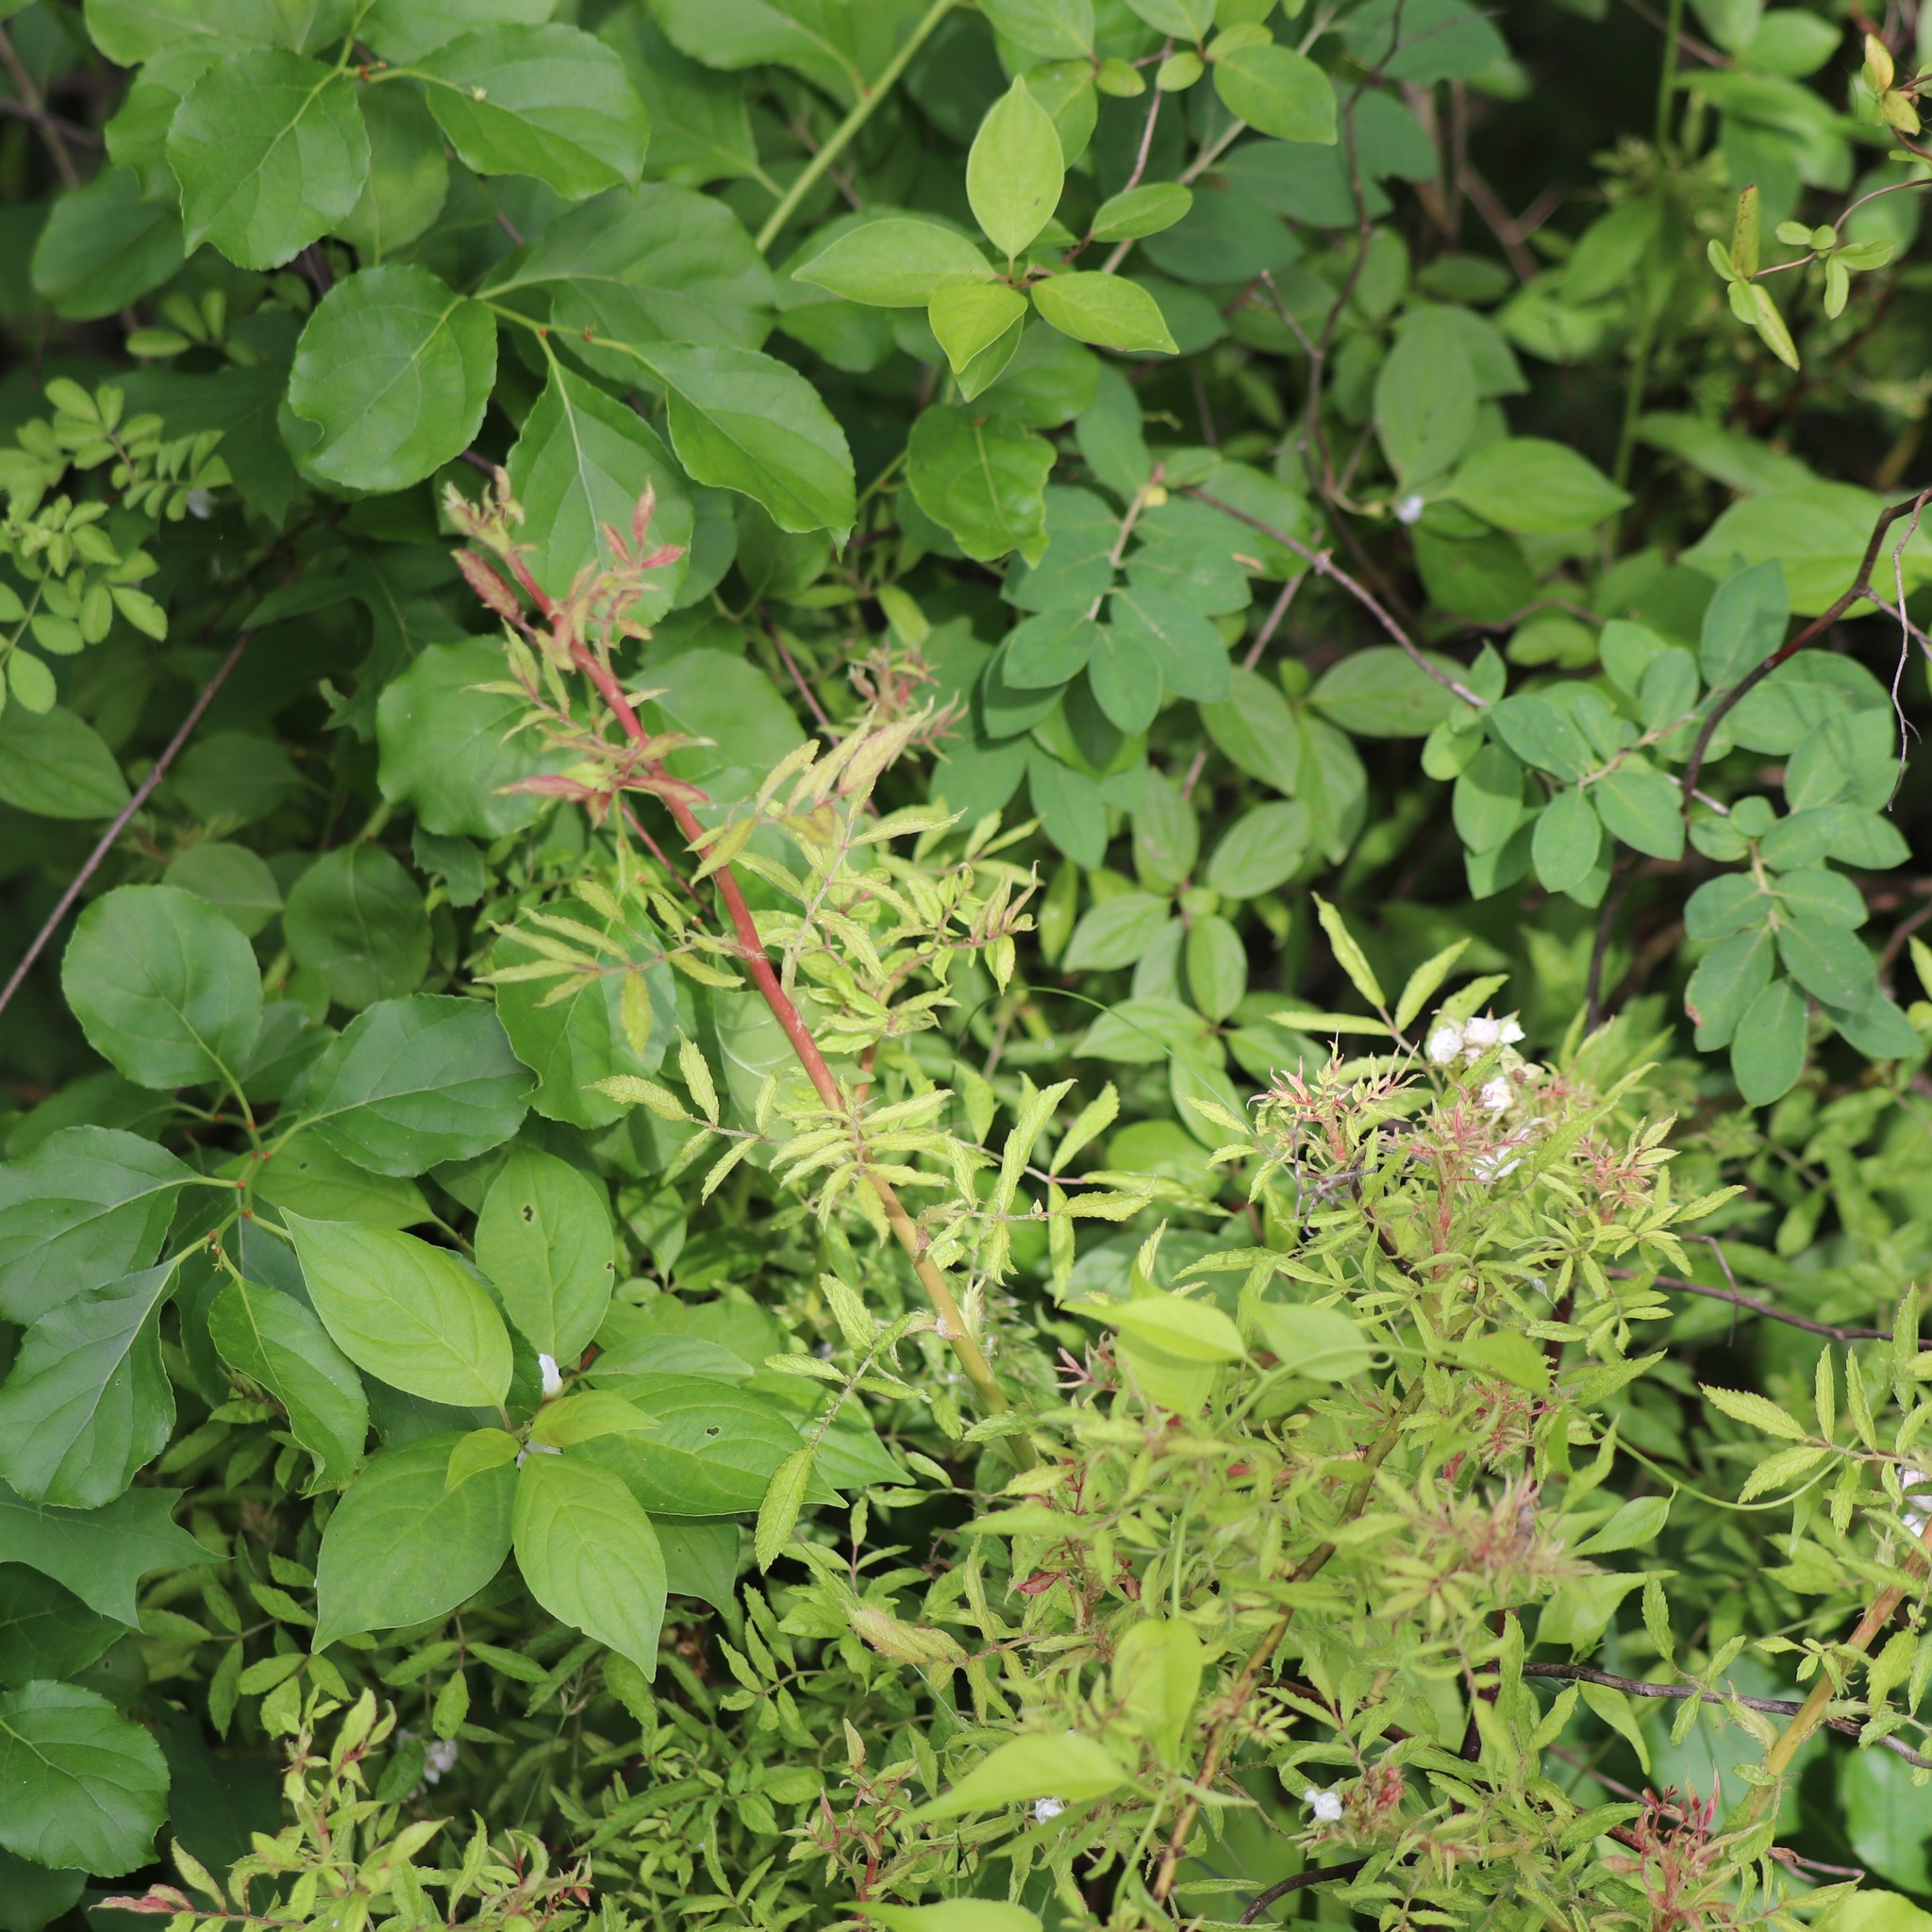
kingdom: Viruses
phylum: Negarnaviricota
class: Ellioviricetes
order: Bunyavirales
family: Fimoviridae
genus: Emaravirus
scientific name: Emaravirus rosae
